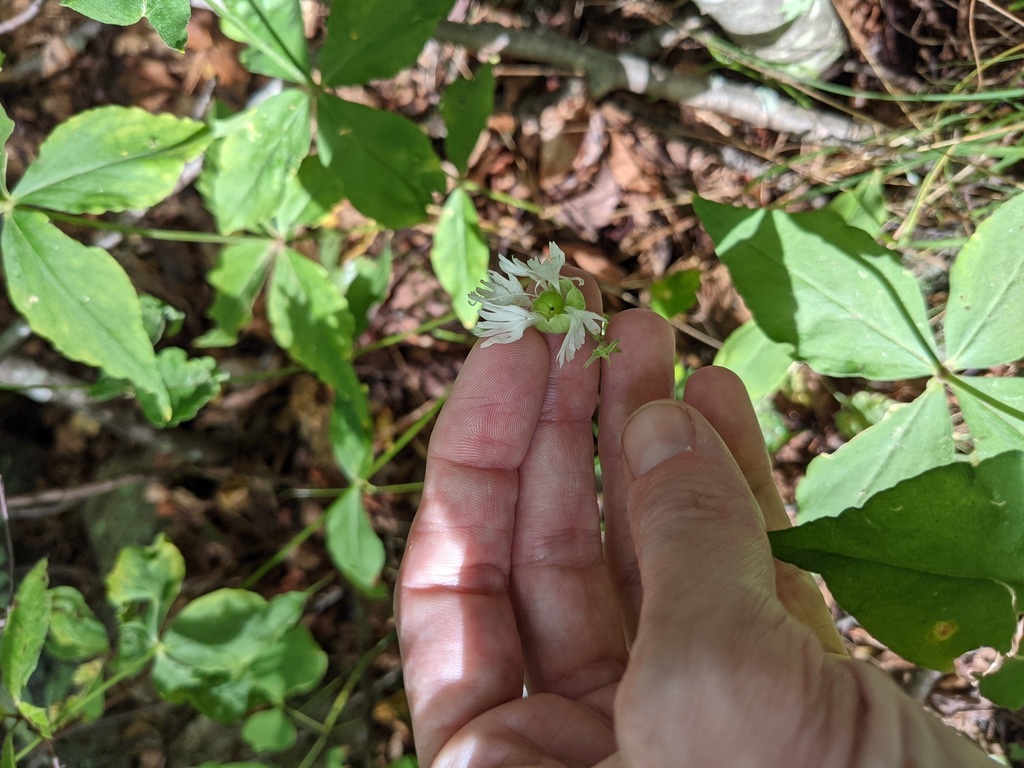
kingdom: Plantae
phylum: Tracheophyta
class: Magnoliopsida
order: Caryophyllales
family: Caryophyllaceae
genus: Silene
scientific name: Silene stellata
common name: Starry campion
